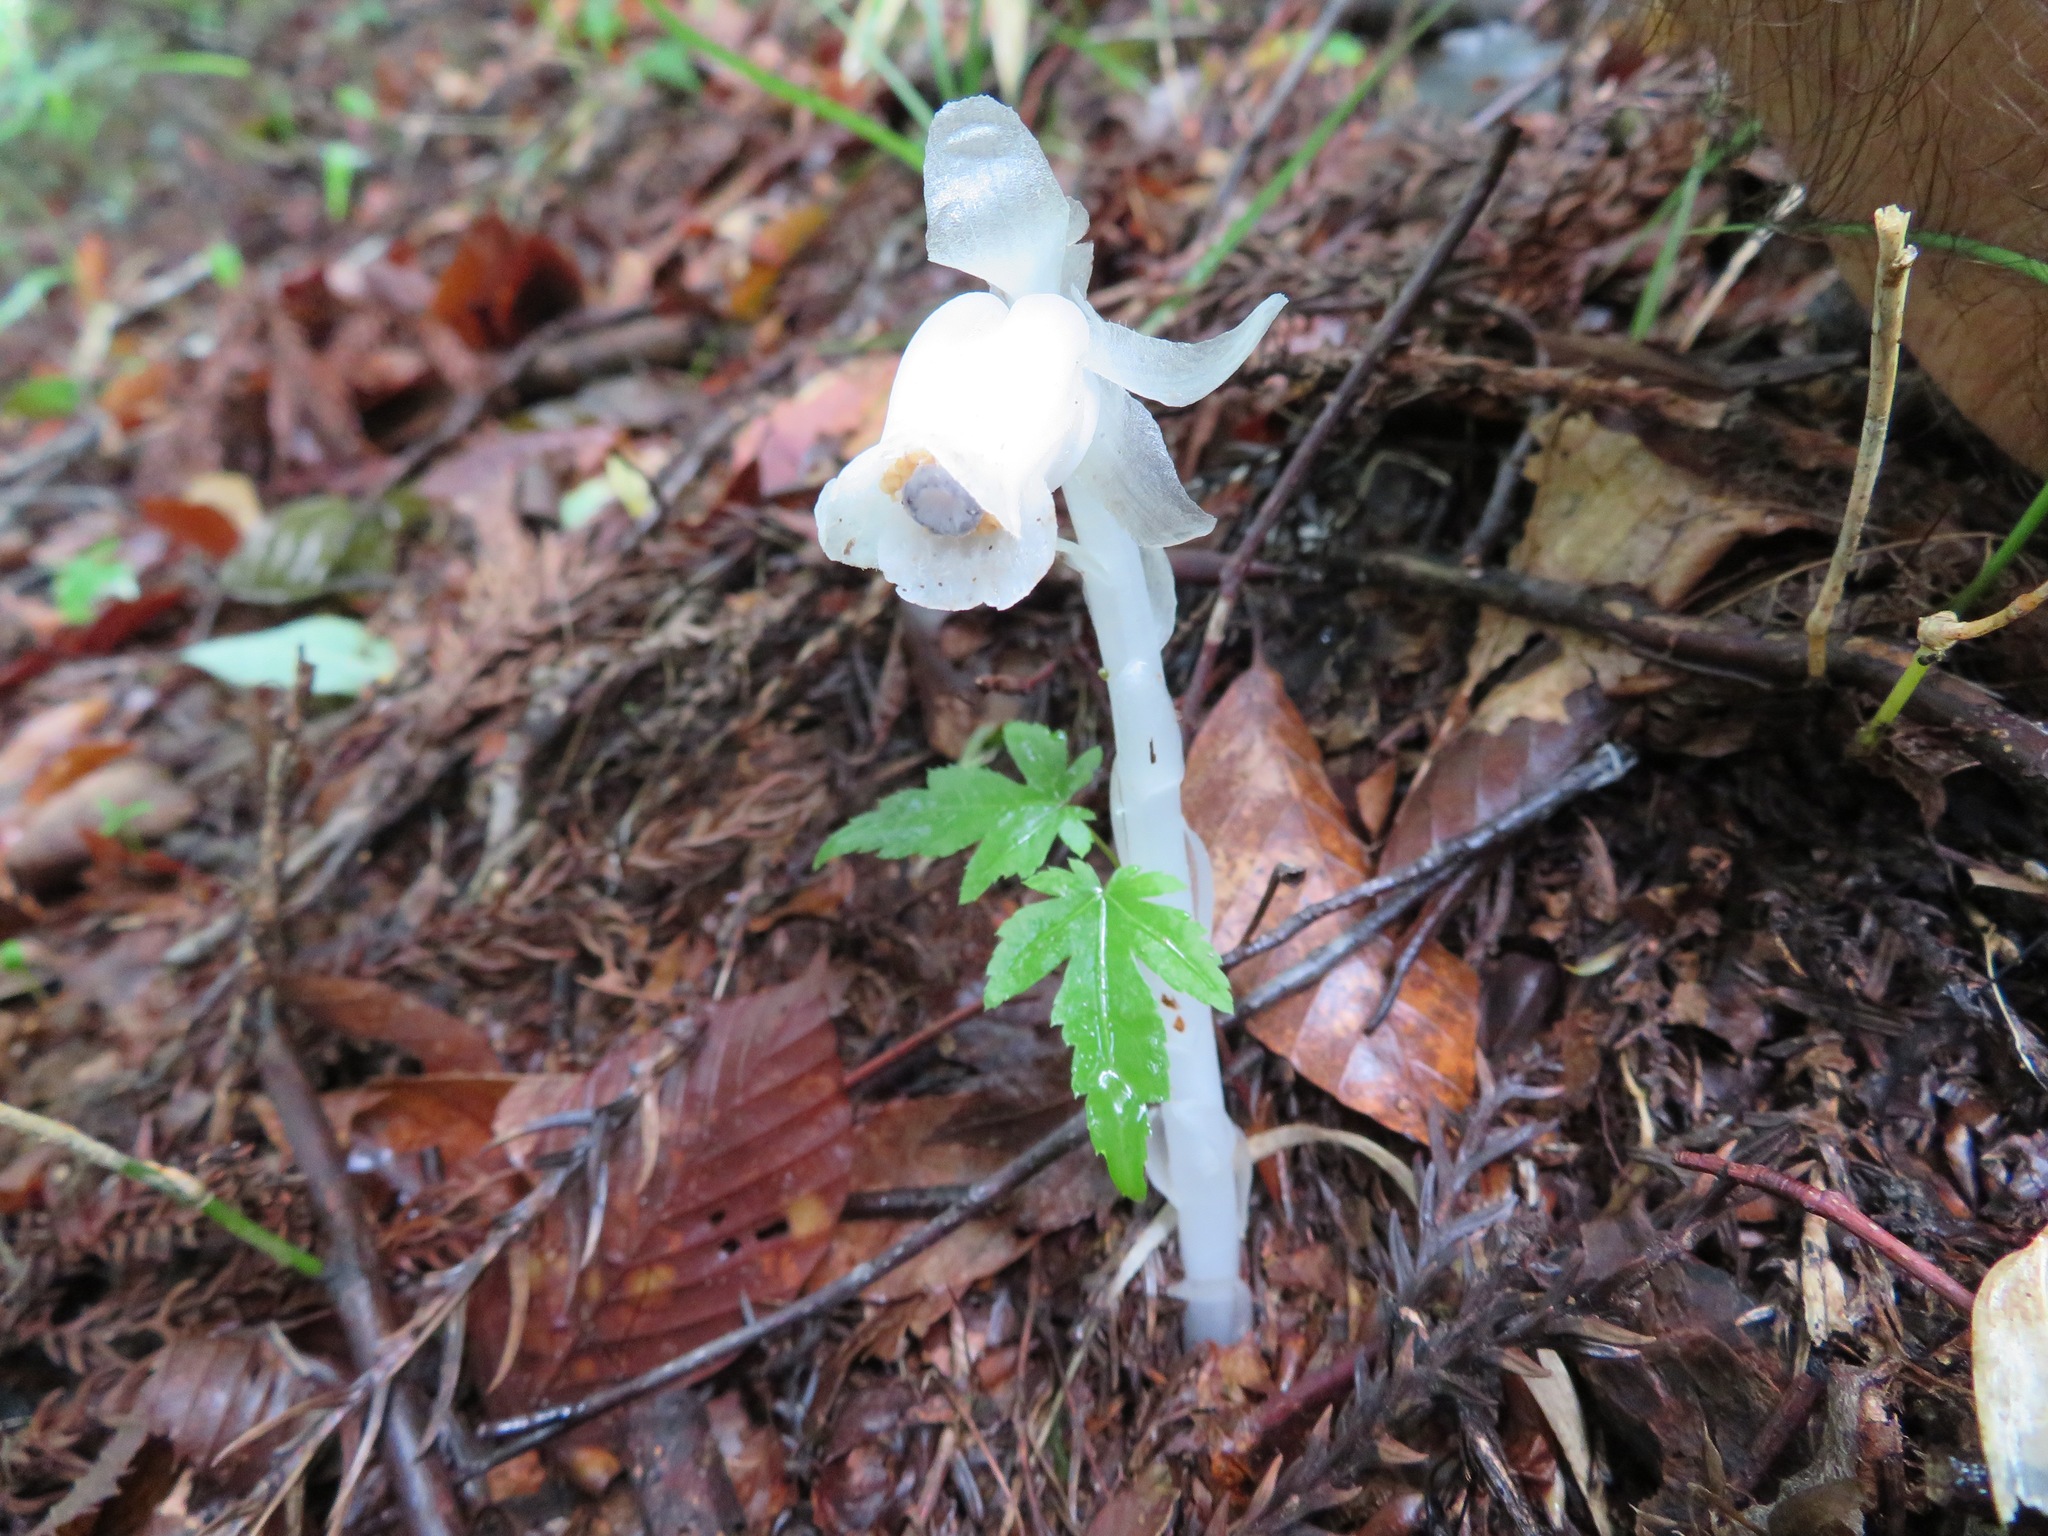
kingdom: Plantae
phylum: Tracheophyta
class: Magnoliopsida
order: Ericales
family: Ericaceae
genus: Monotropastrum
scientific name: Monotropastrum humile
